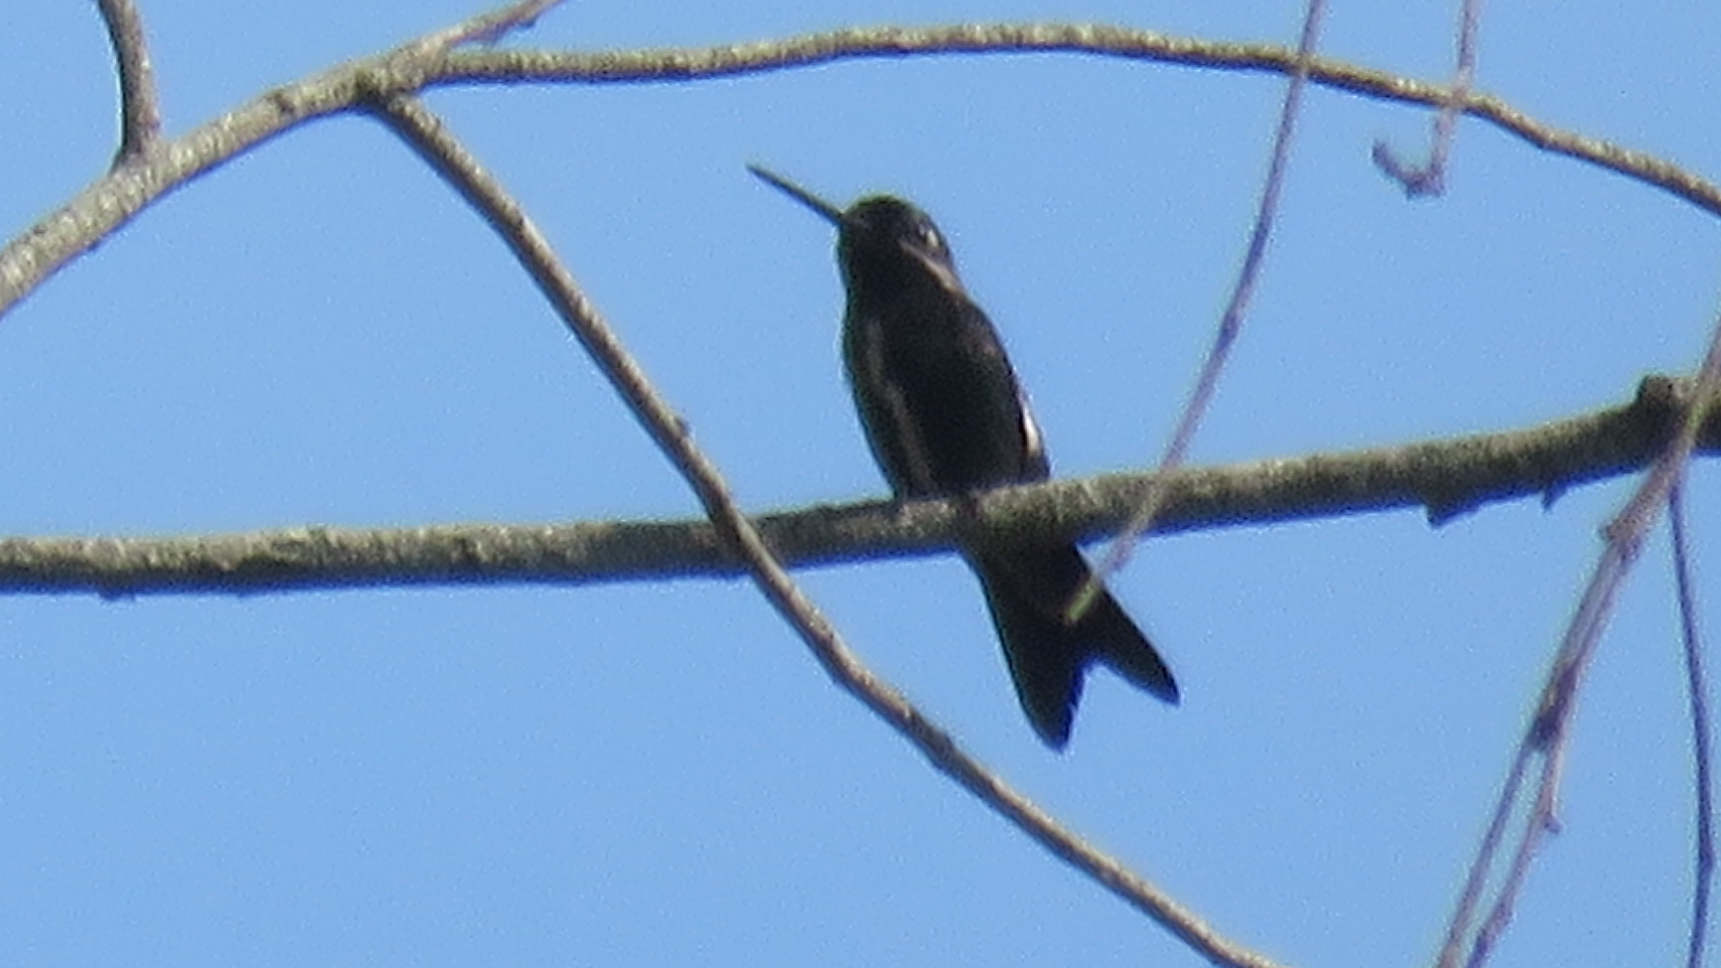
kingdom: Animalia
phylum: Chordata
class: Aves
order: Apodiformes
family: Trochilidae
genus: Heliomaster
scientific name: Heliomaster squamosus
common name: Stripe-breasted starthroat
